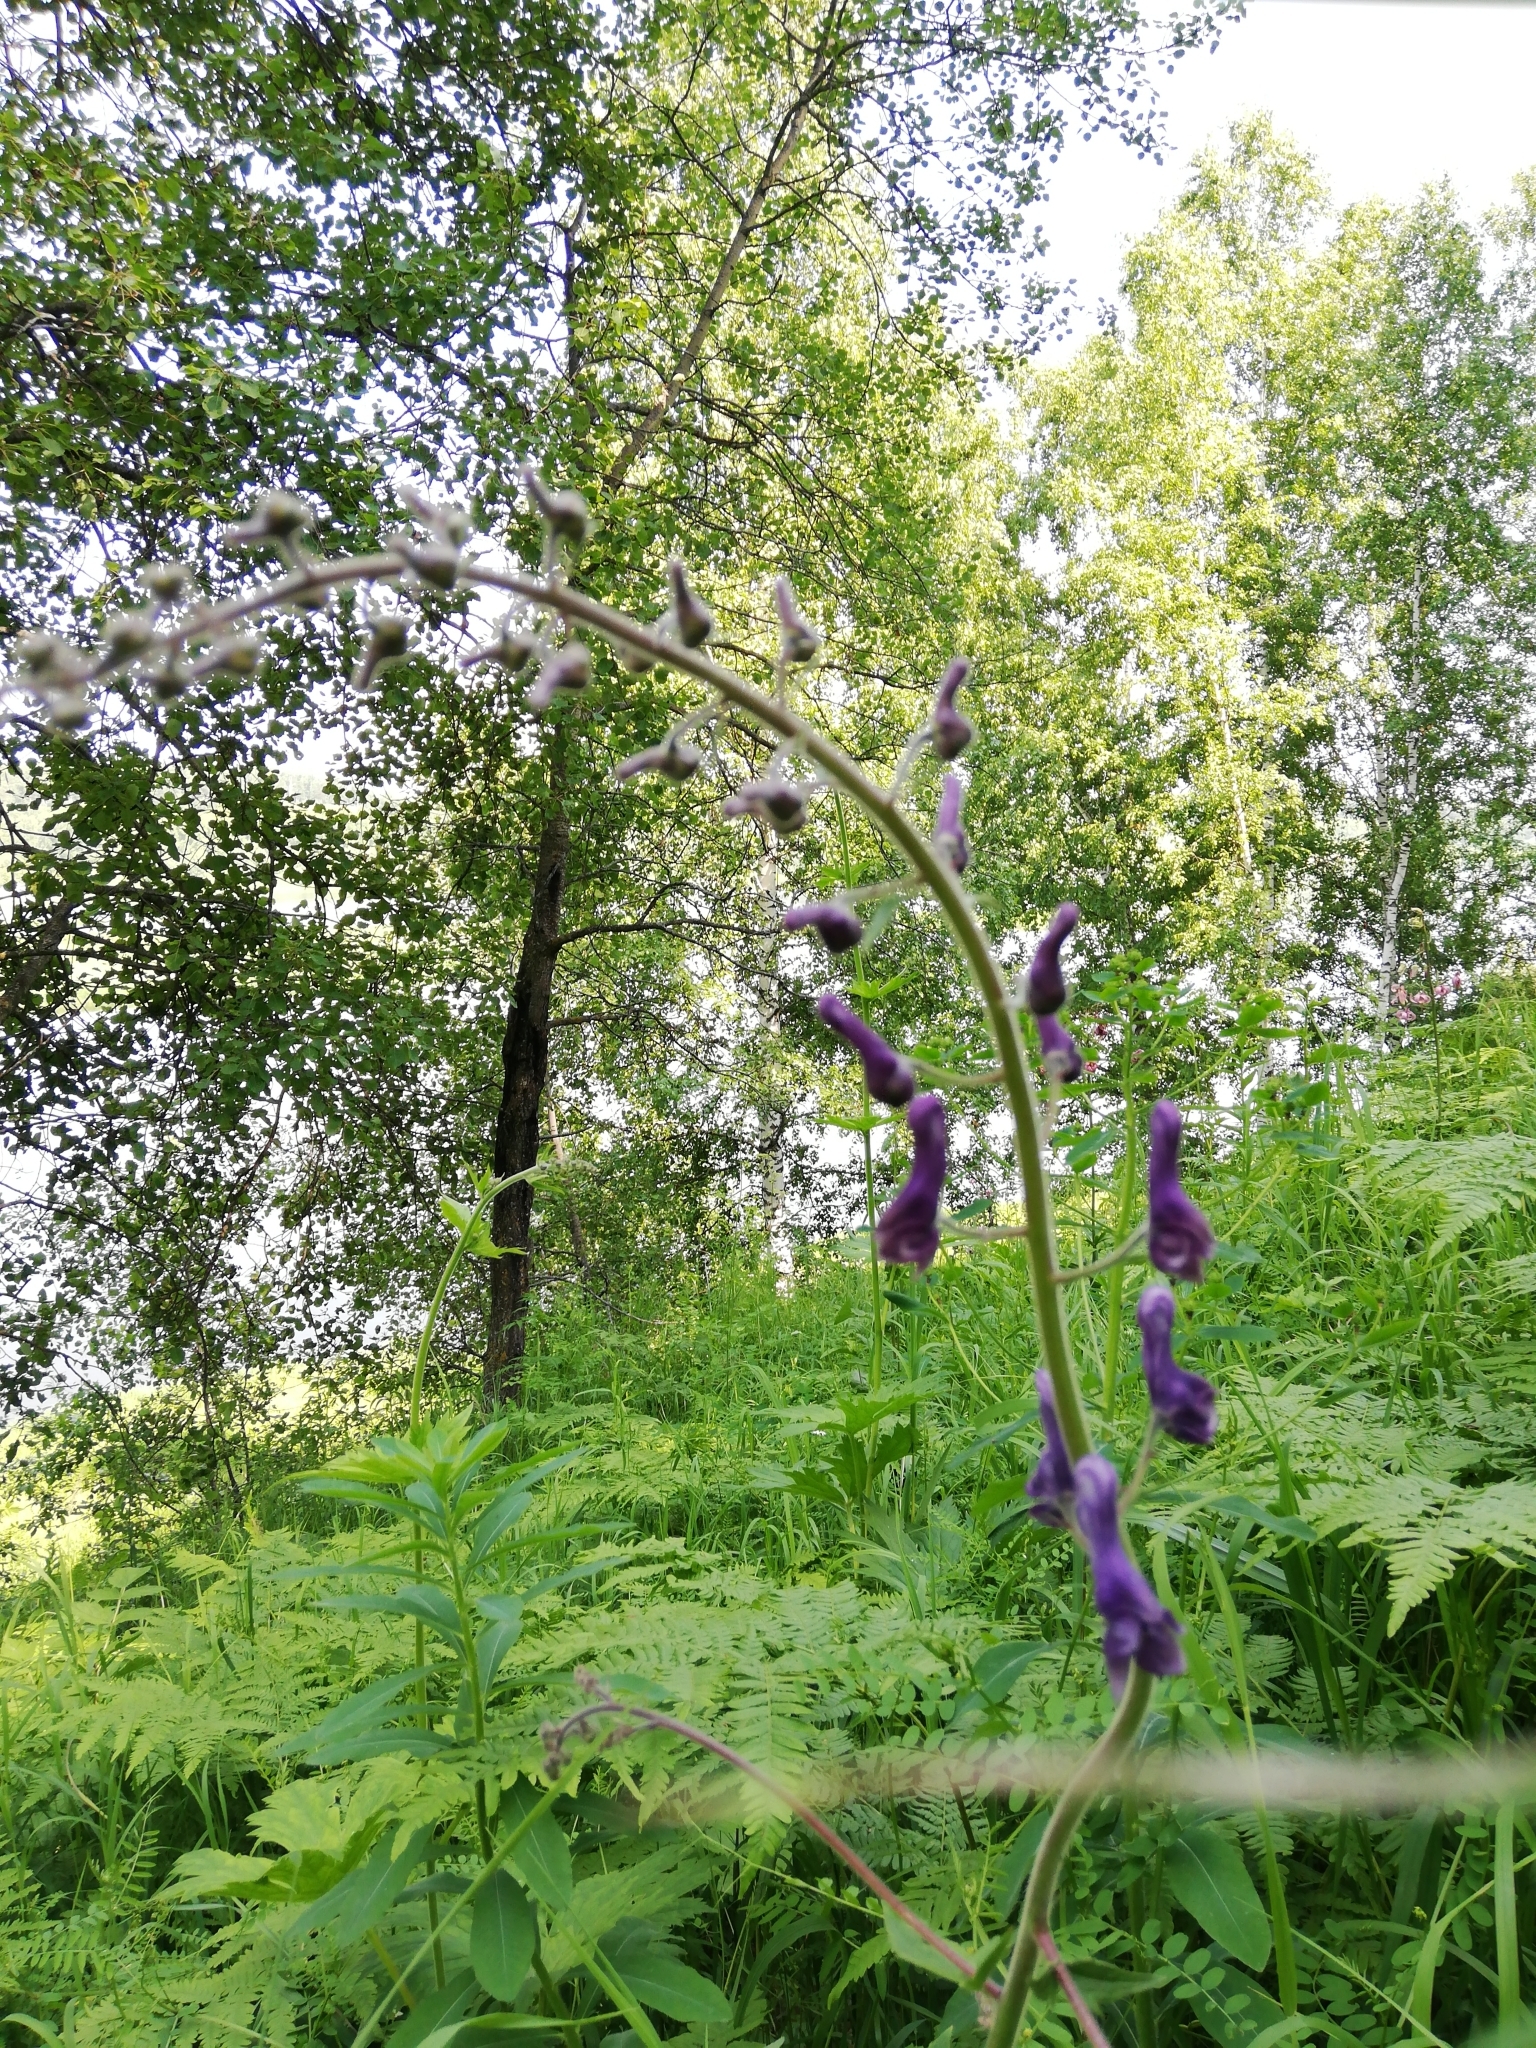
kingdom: Plantae
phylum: Tracheophyta
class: Magnoliopsida
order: Ranunculales
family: Ranunculaceae
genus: Aconitum
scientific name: Aconitum septentrionale
